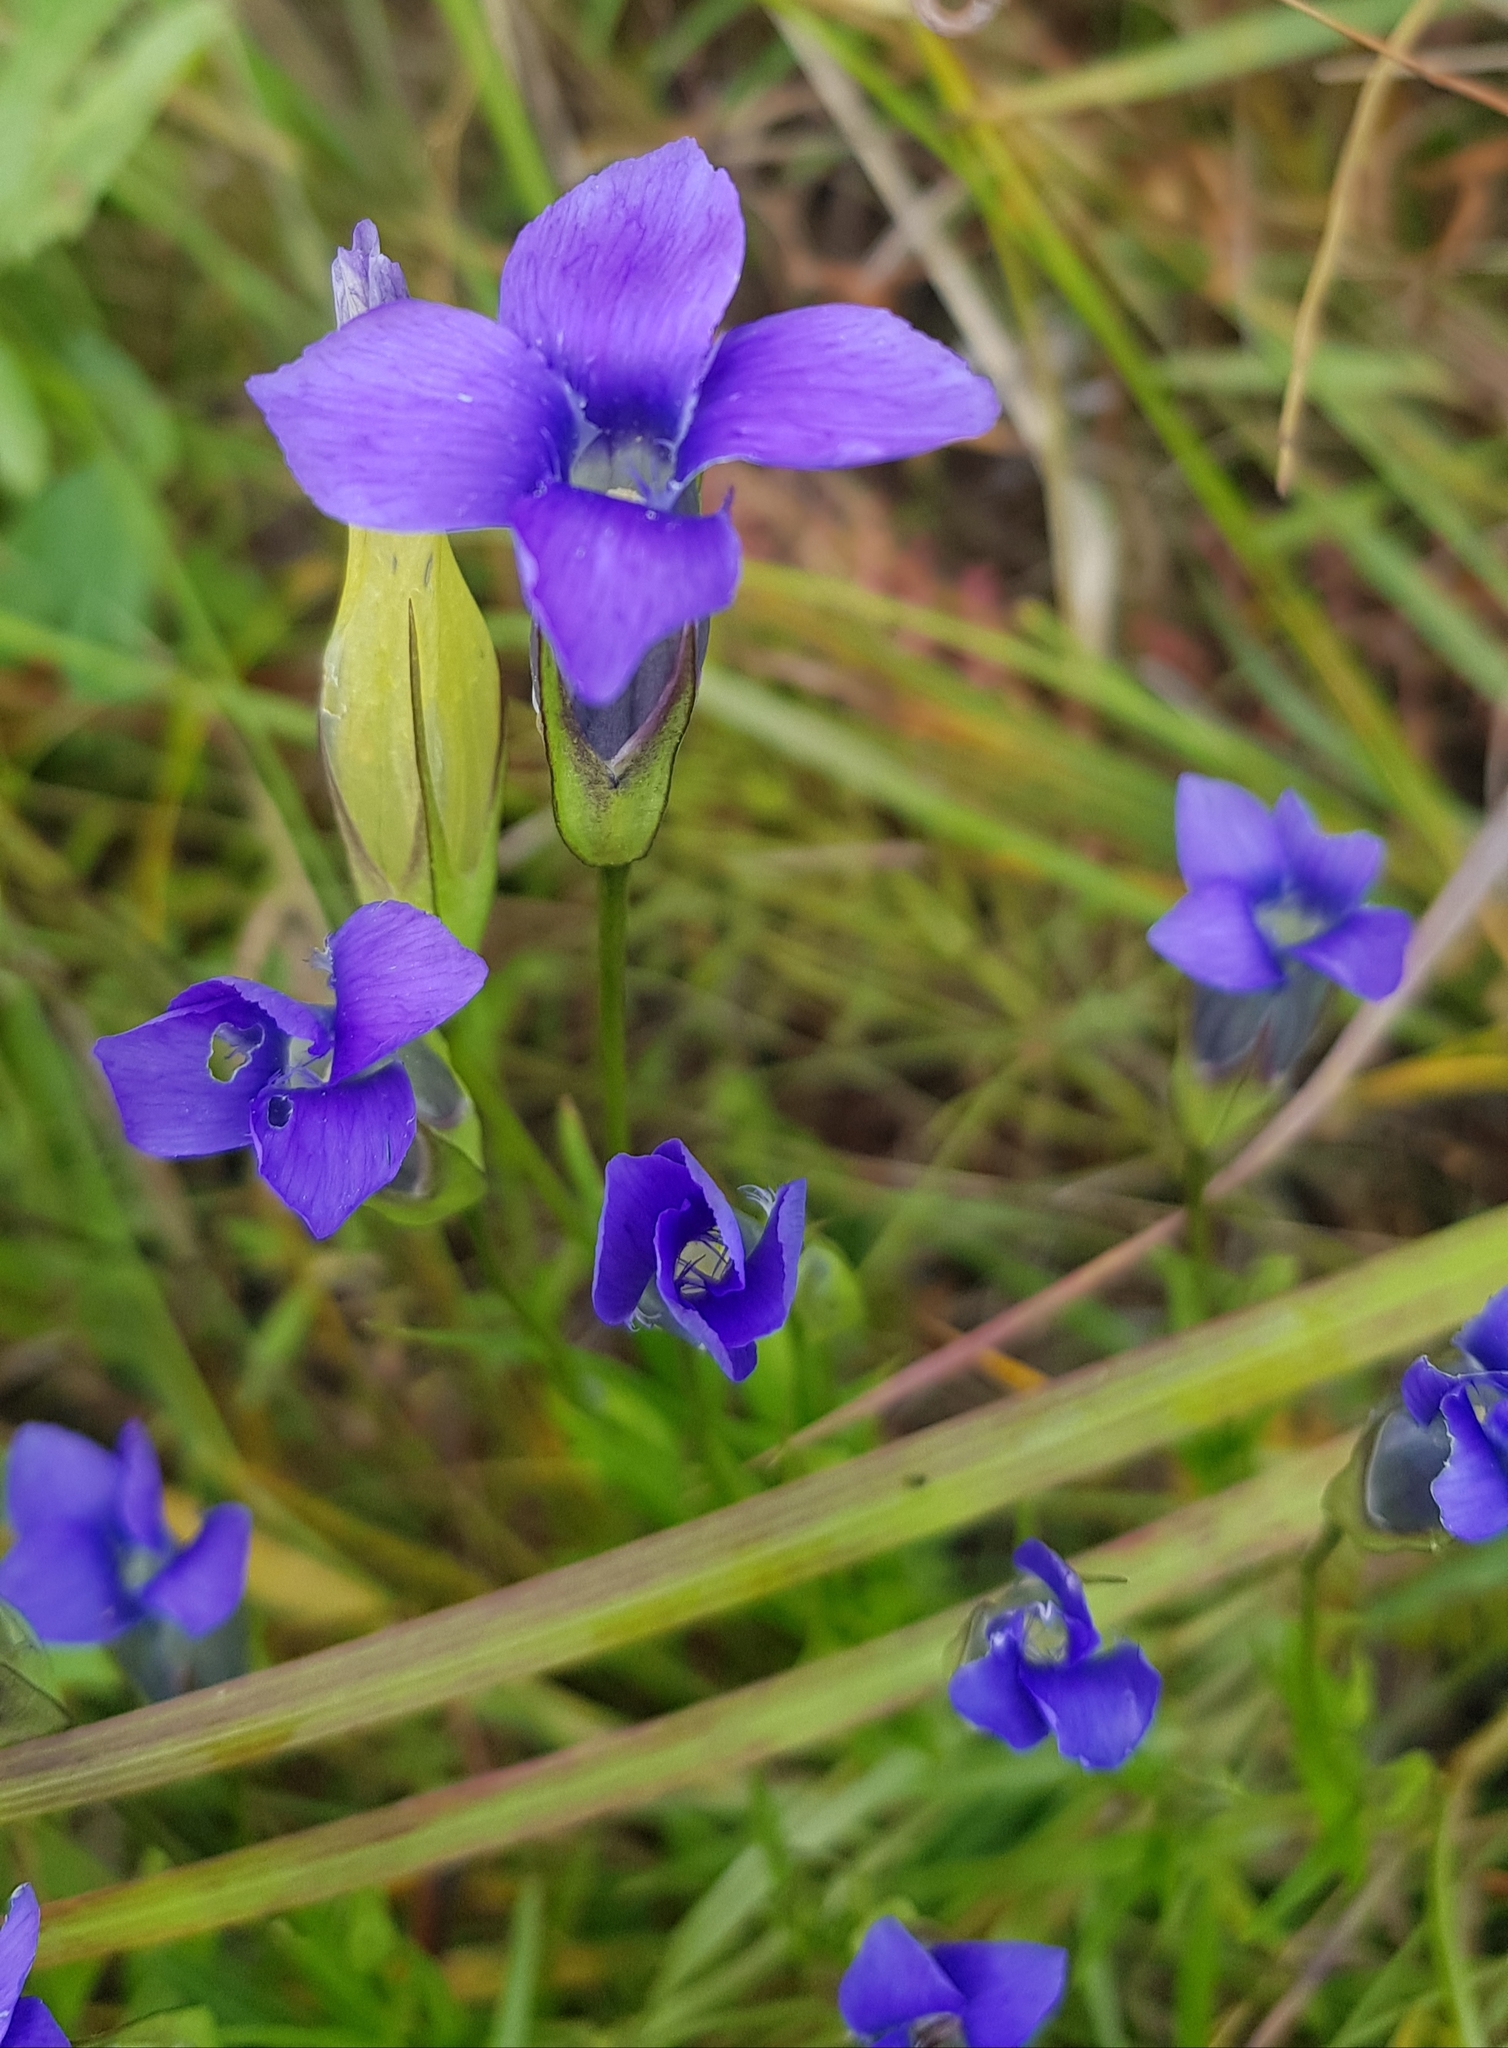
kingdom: Plantae
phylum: Tracheophyta
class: Magnoliopsida
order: Gentianales
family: Gentianaceae
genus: Gentianopsis
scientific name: Gentianopsis barbata
